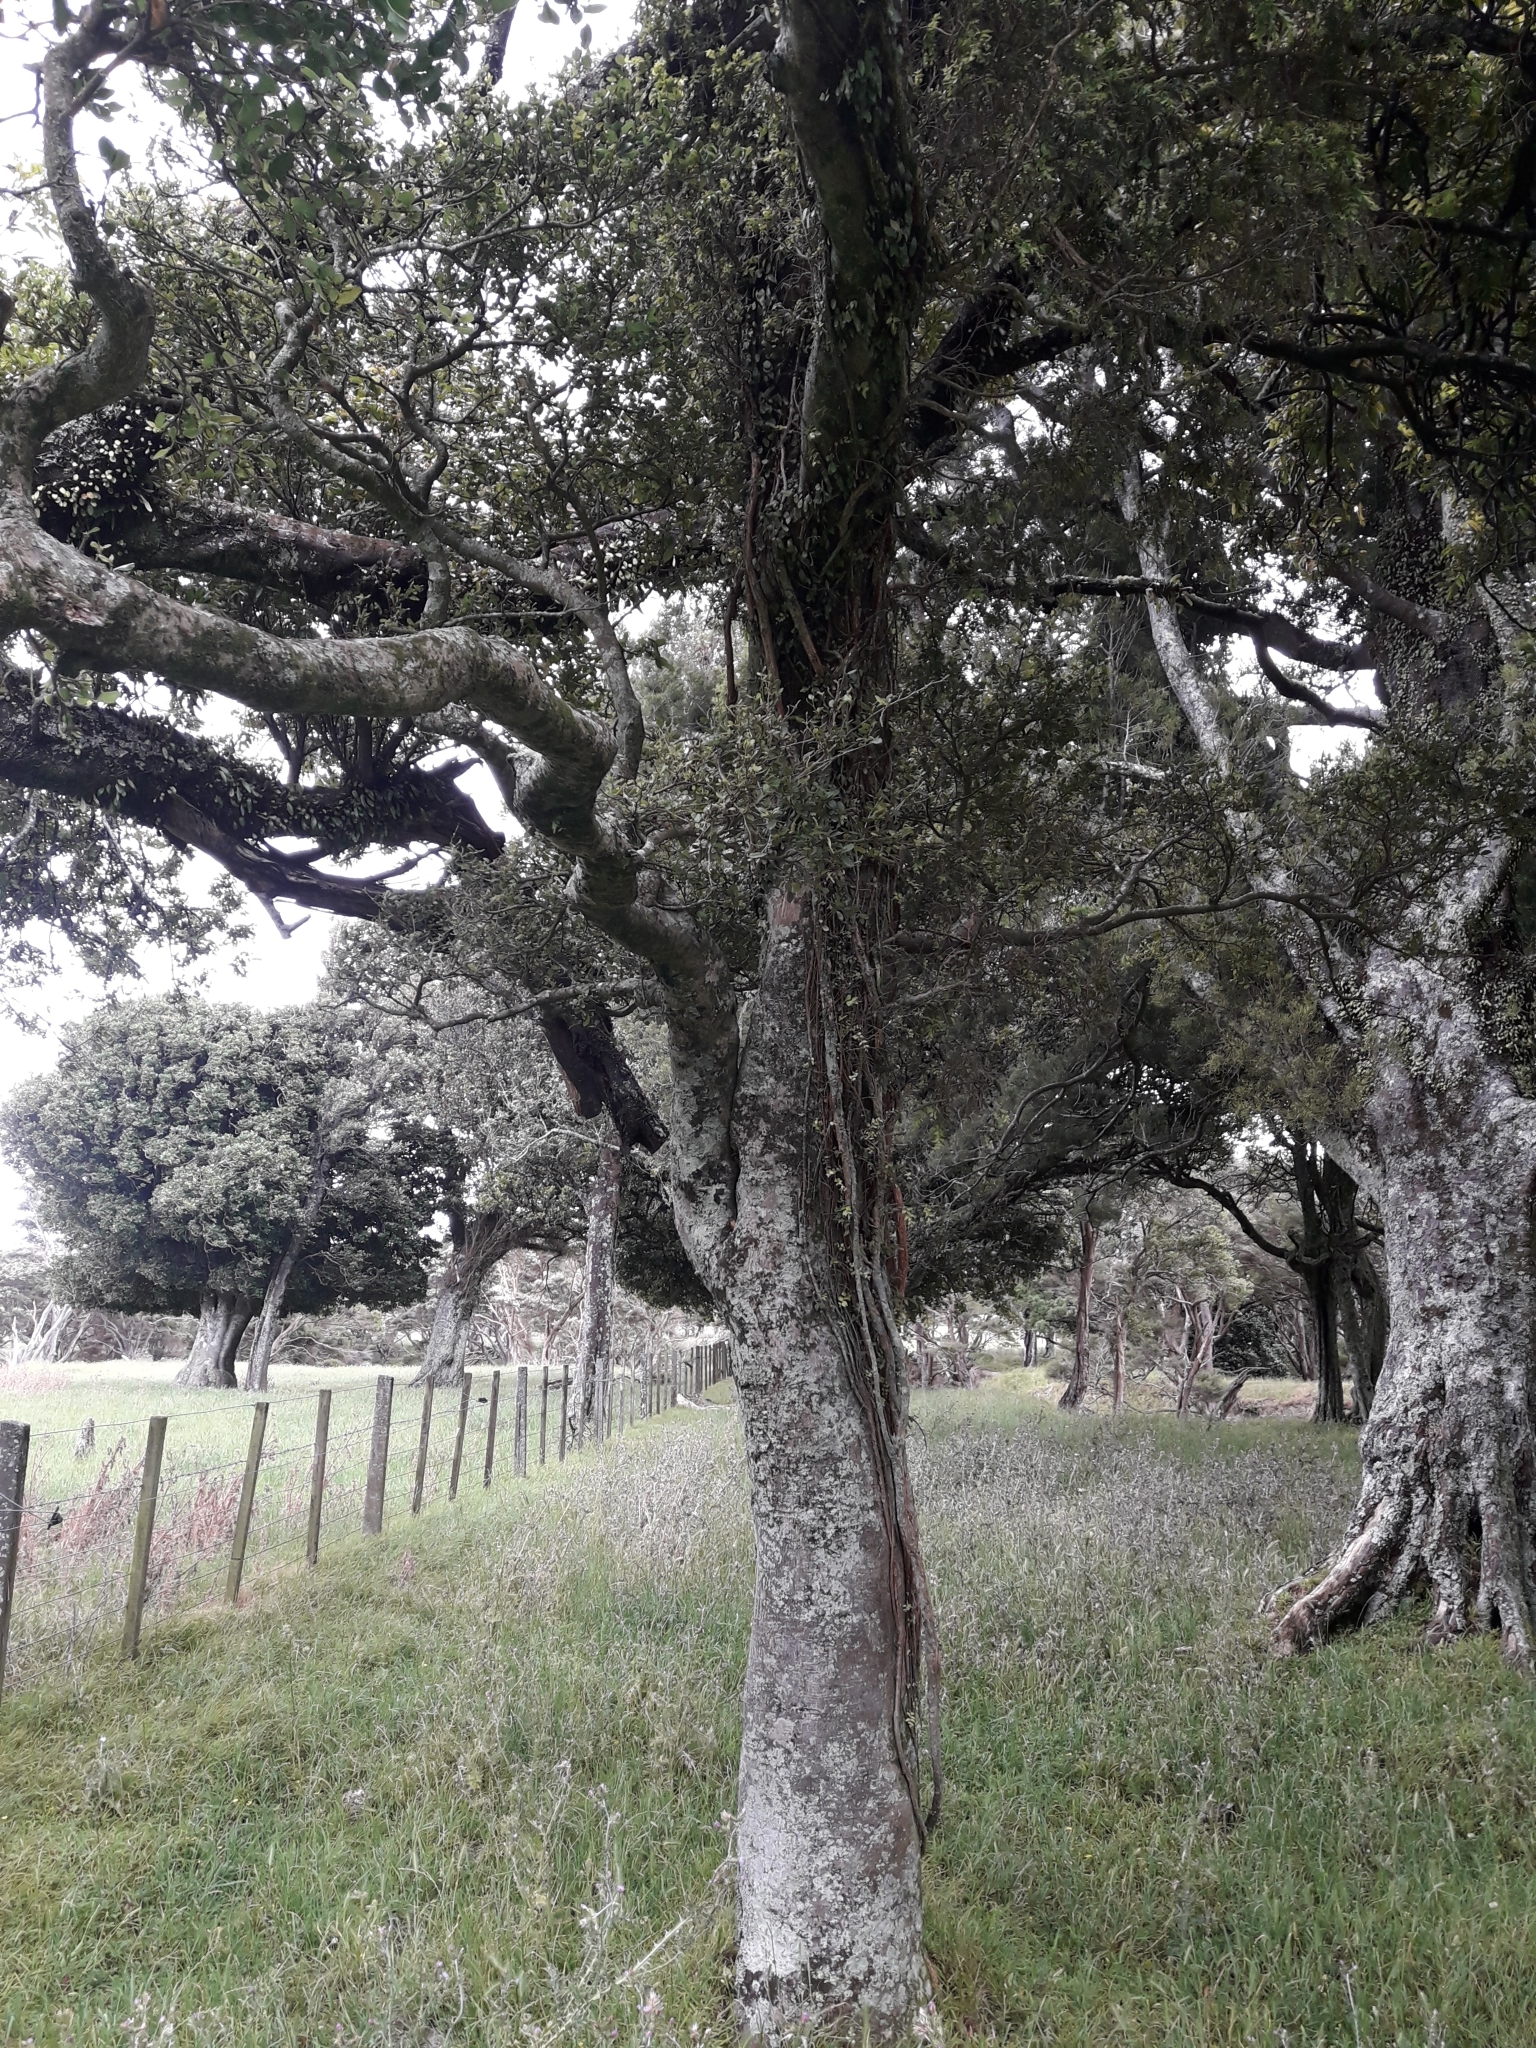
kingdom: Plantae
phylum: Tracheophyta
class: Magnoliopsida
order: Rosales
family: Moraceae
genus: Paratrophis
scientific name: Paratrophis banksii
